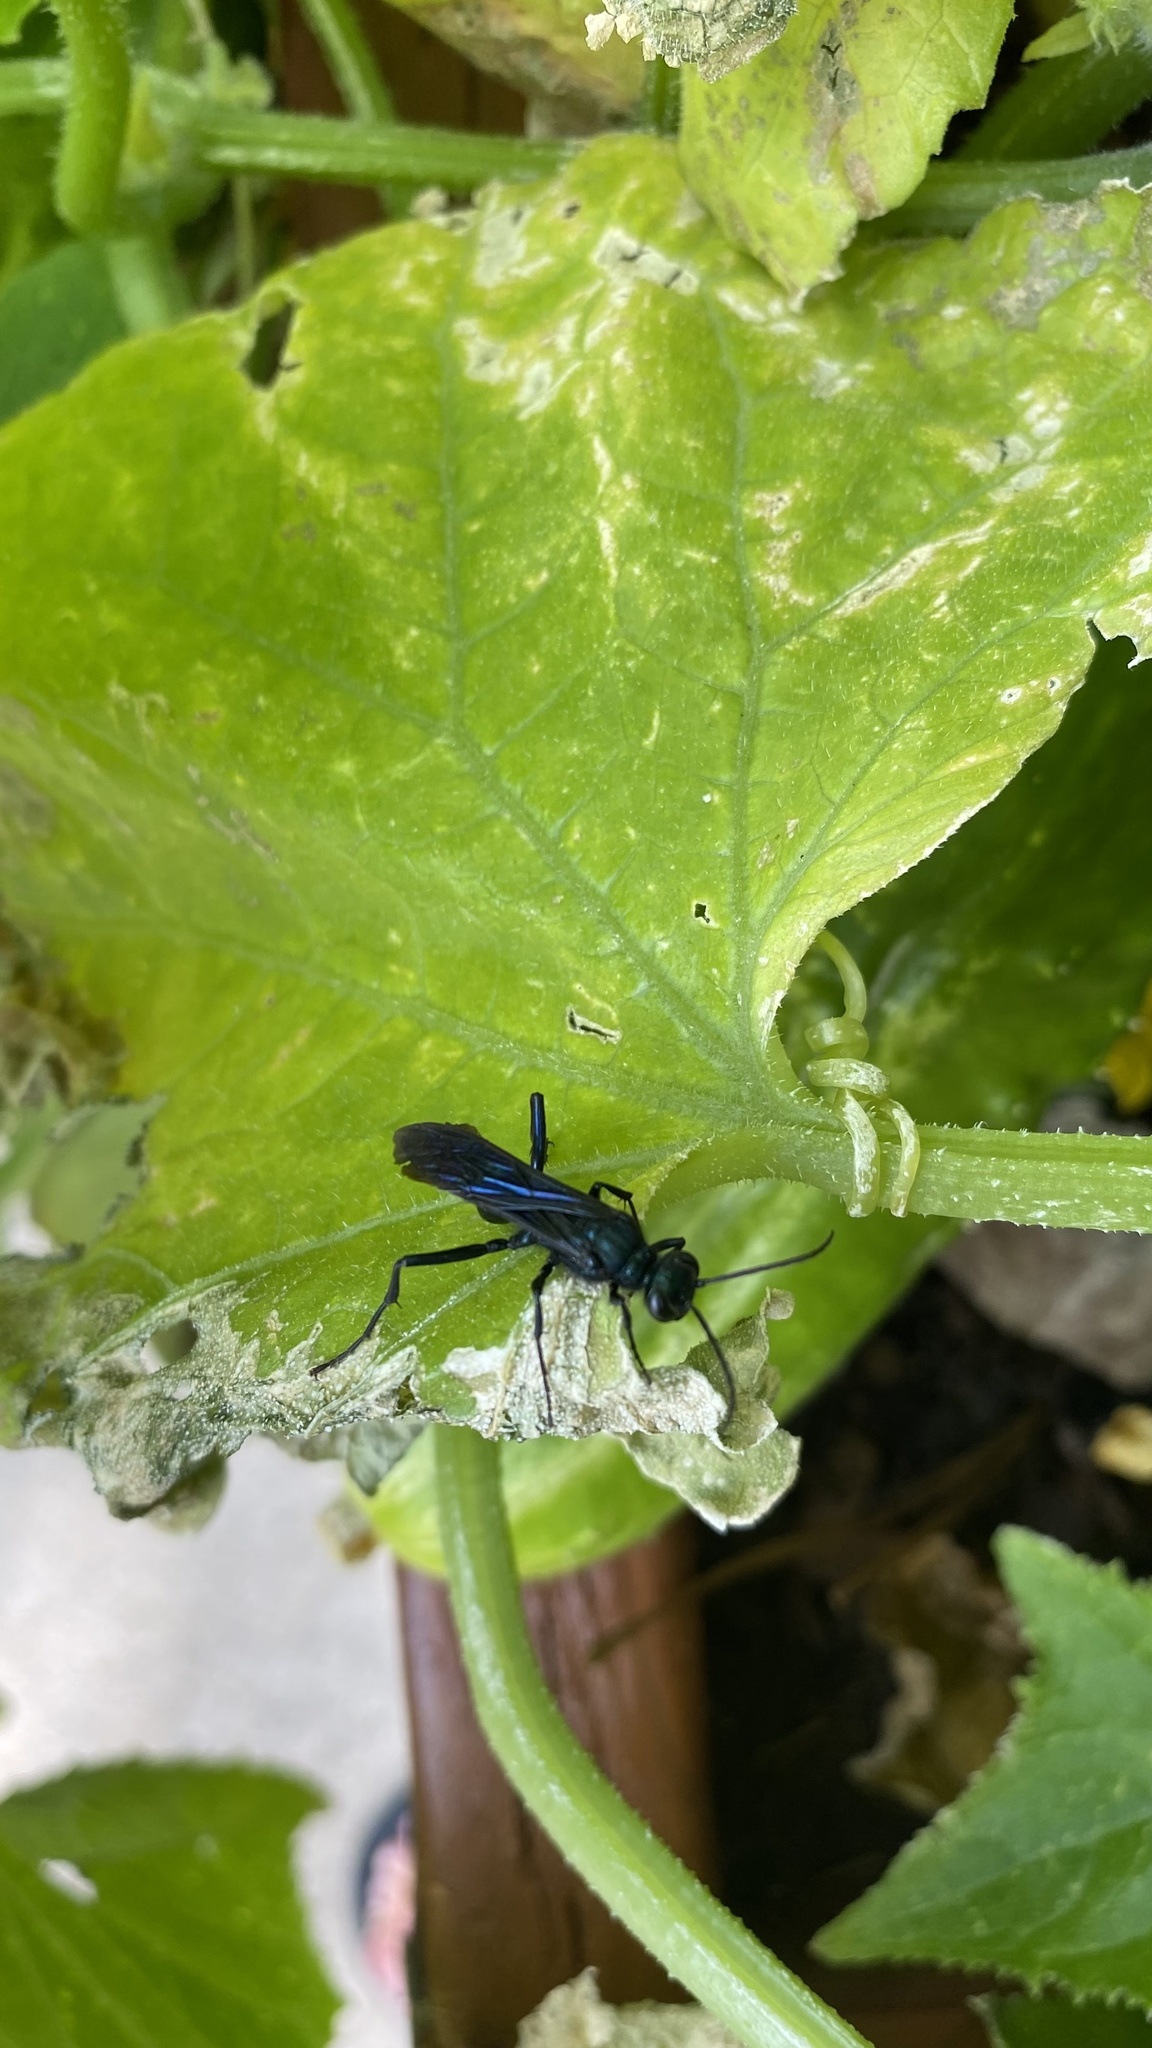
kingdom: Animalia
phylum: Arthropoda
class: Insecta
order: Hymenoptera
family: Sphecidae
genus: Chalybion
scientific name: Chalybion californicum
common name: Mud dauber
